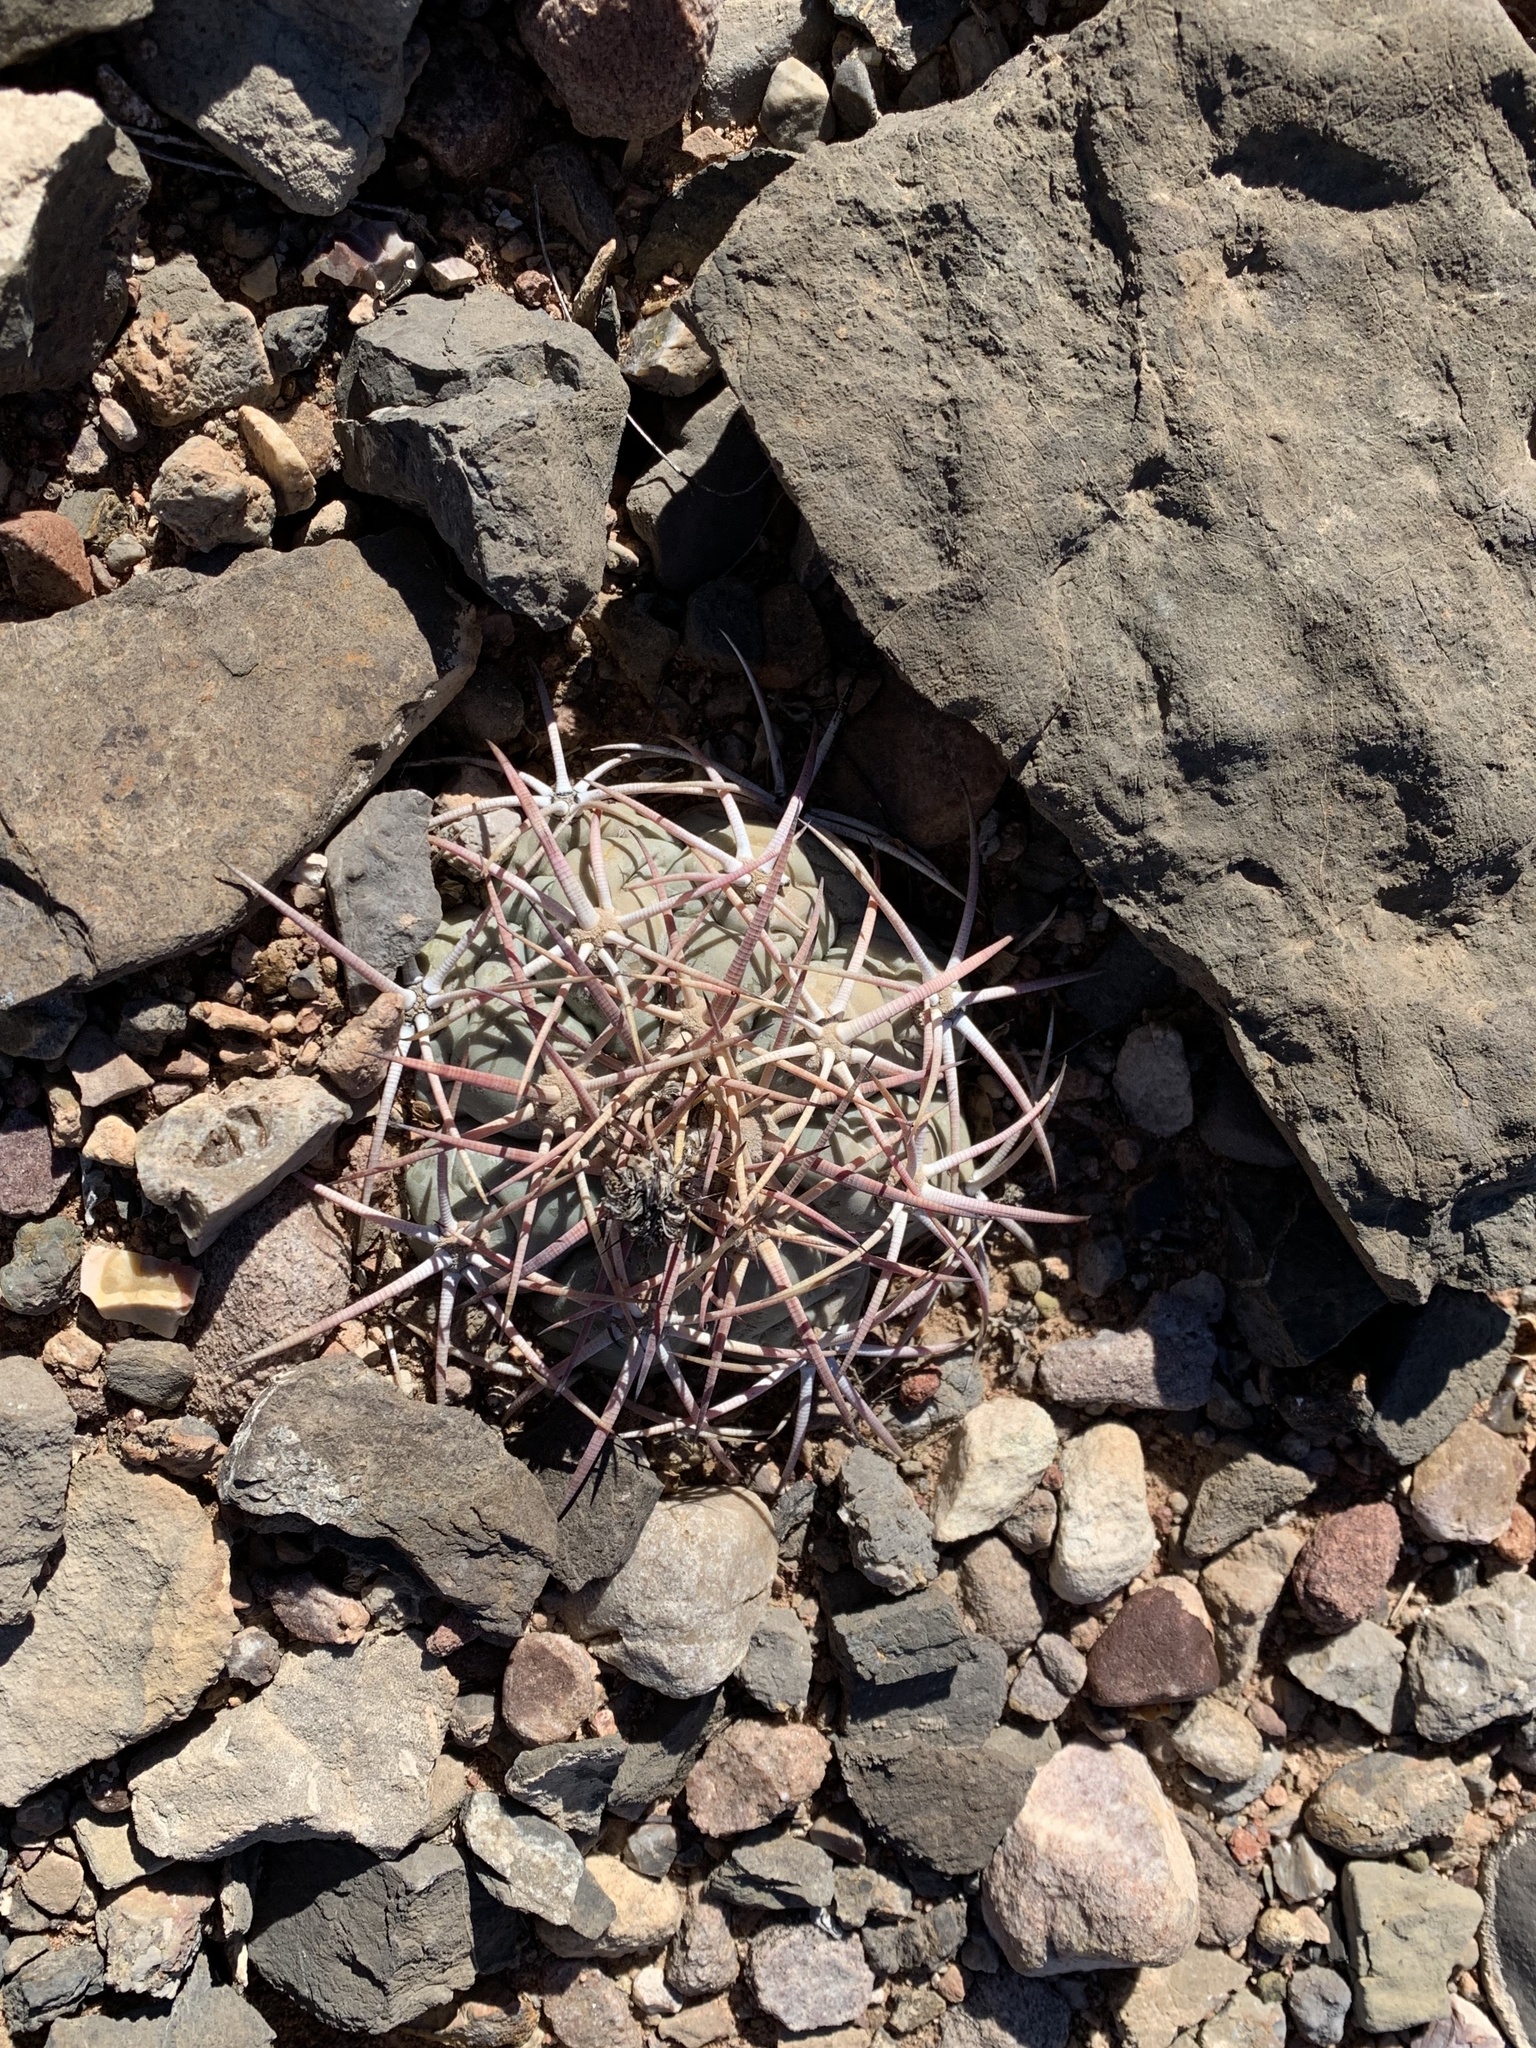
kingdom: Plantae
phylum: Tracheophyta
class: Magnoliopsida
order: Caryophyllales
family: Cactaceae
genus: Echinocactus
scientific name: Echinocactus horizonthalonius
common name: Devilshead
